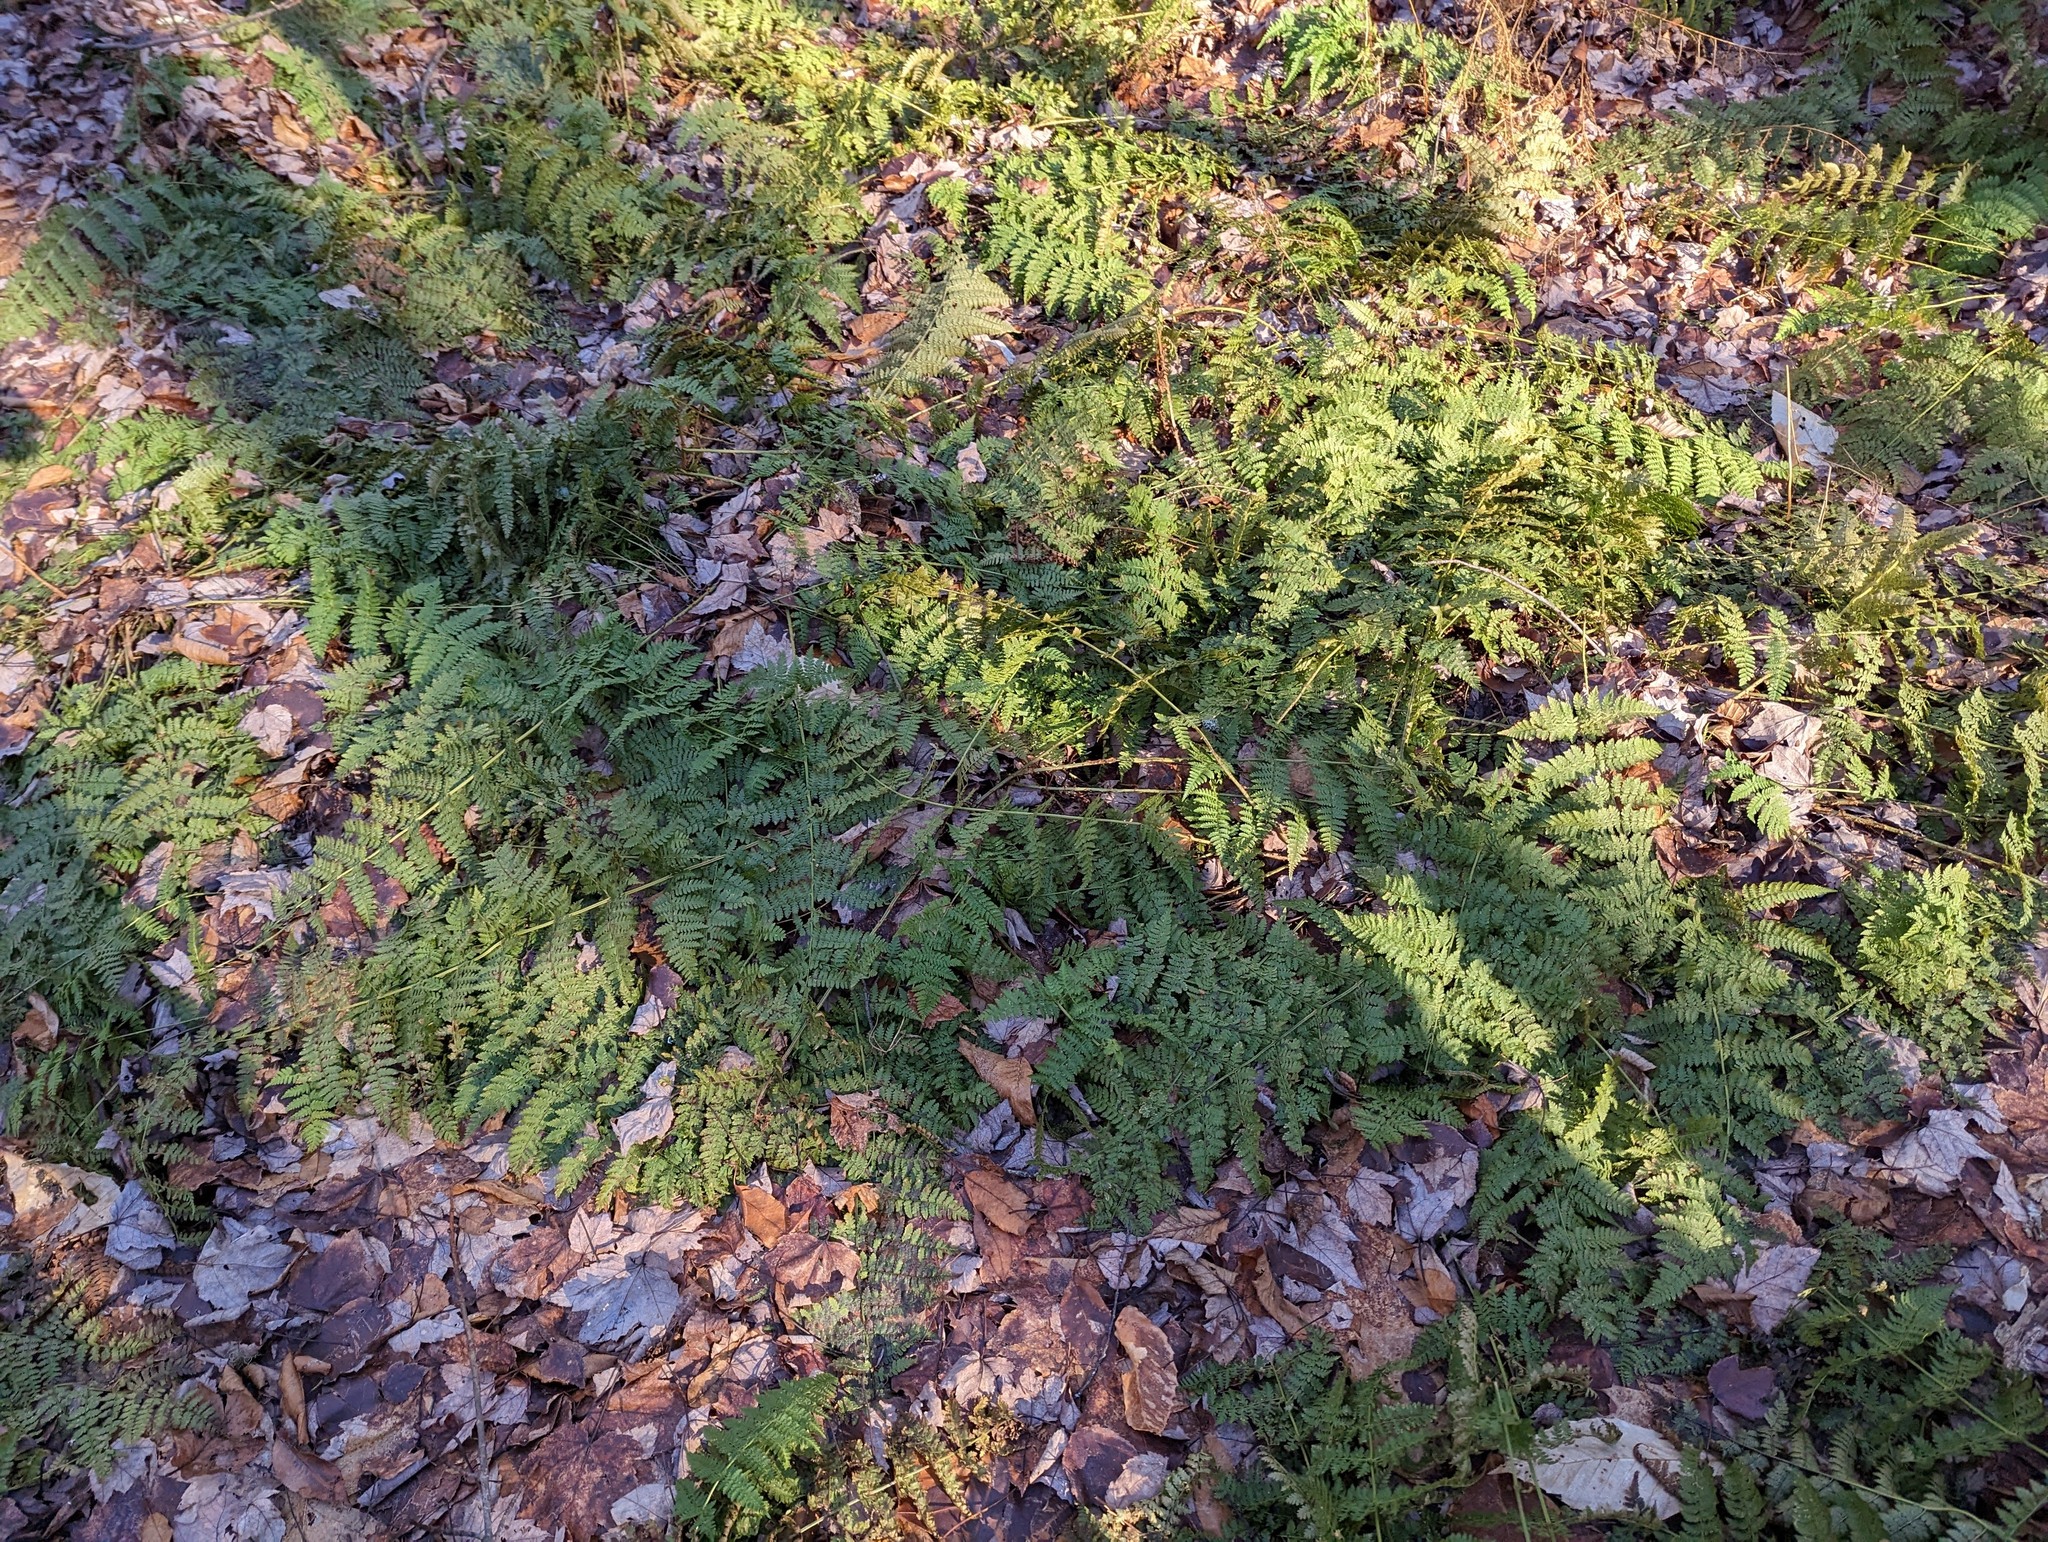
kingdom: Plantae
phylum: Tracheophyta
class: Polypodiopsida
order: Polypodiales
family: Dryopteridaceae
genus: Dryopteris
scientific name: Dryopteris intermedia
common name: Evergreen wood fern
